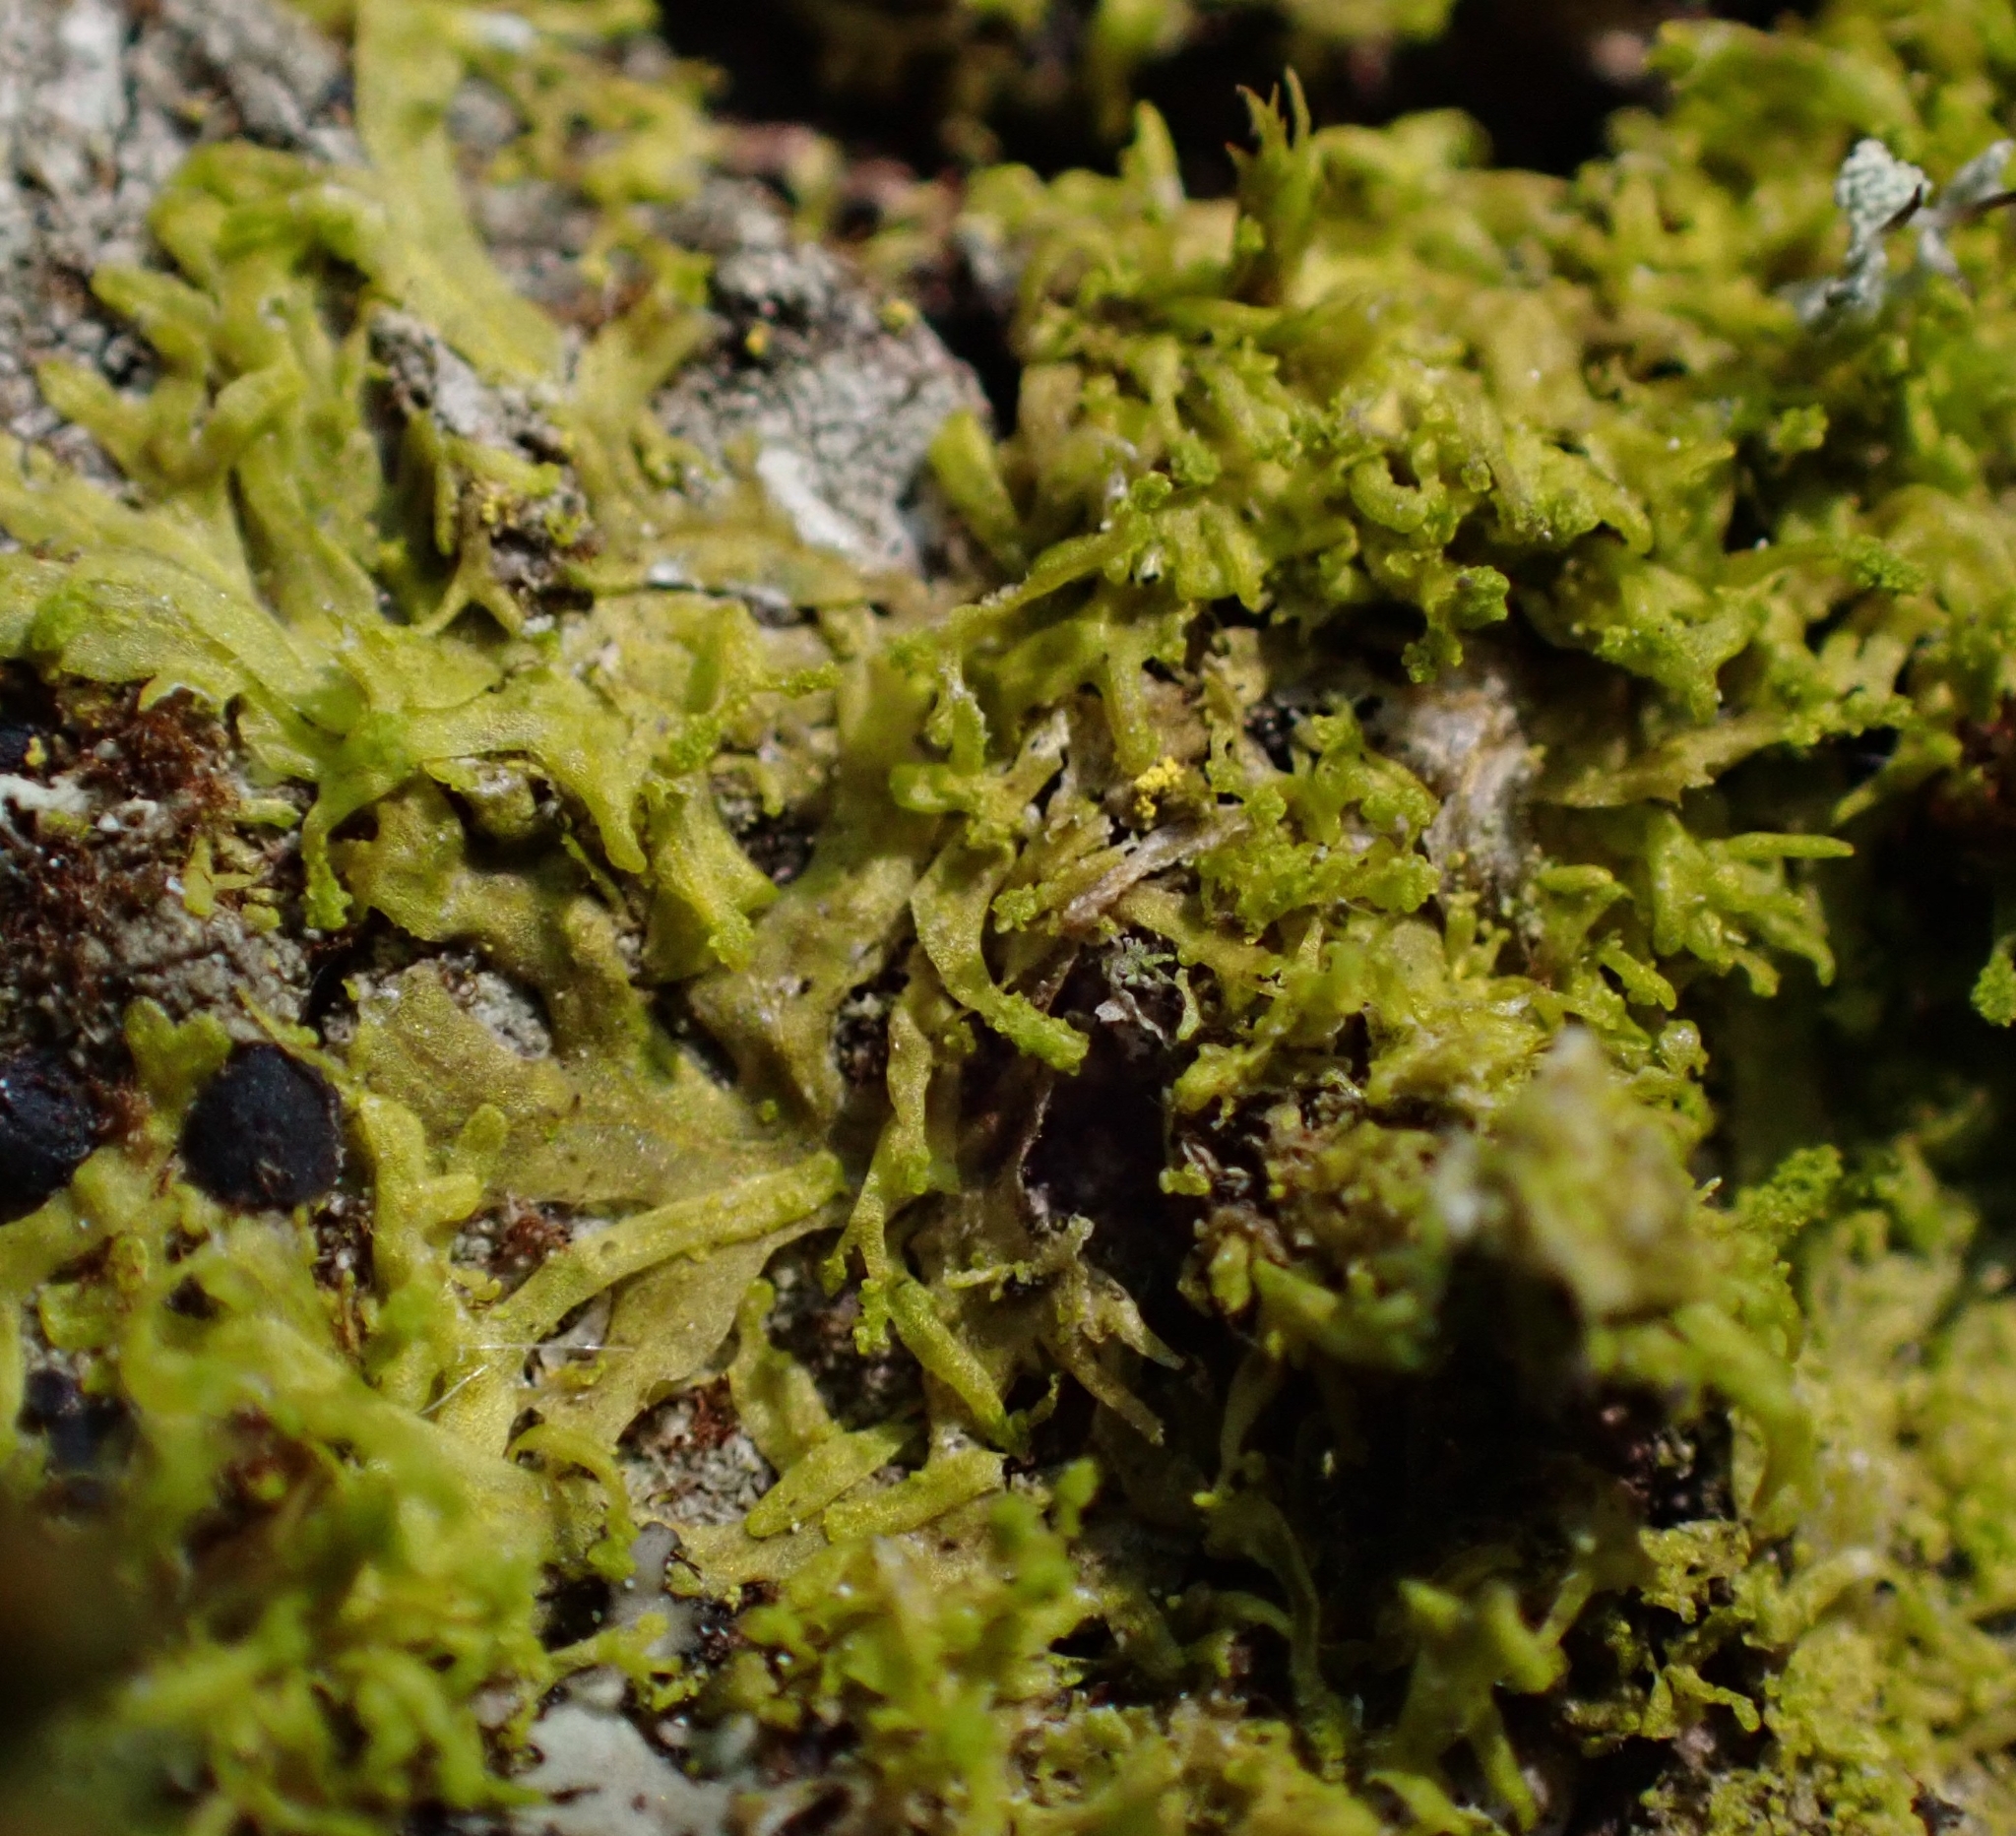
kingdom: Plantae
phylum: Marchantiophyta
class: Jungermanniopsida
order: Metzgeriales
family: Metzgeriaceae
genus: Metzgeria
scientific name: Metzgeria violacea
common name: Blueish veilwort
